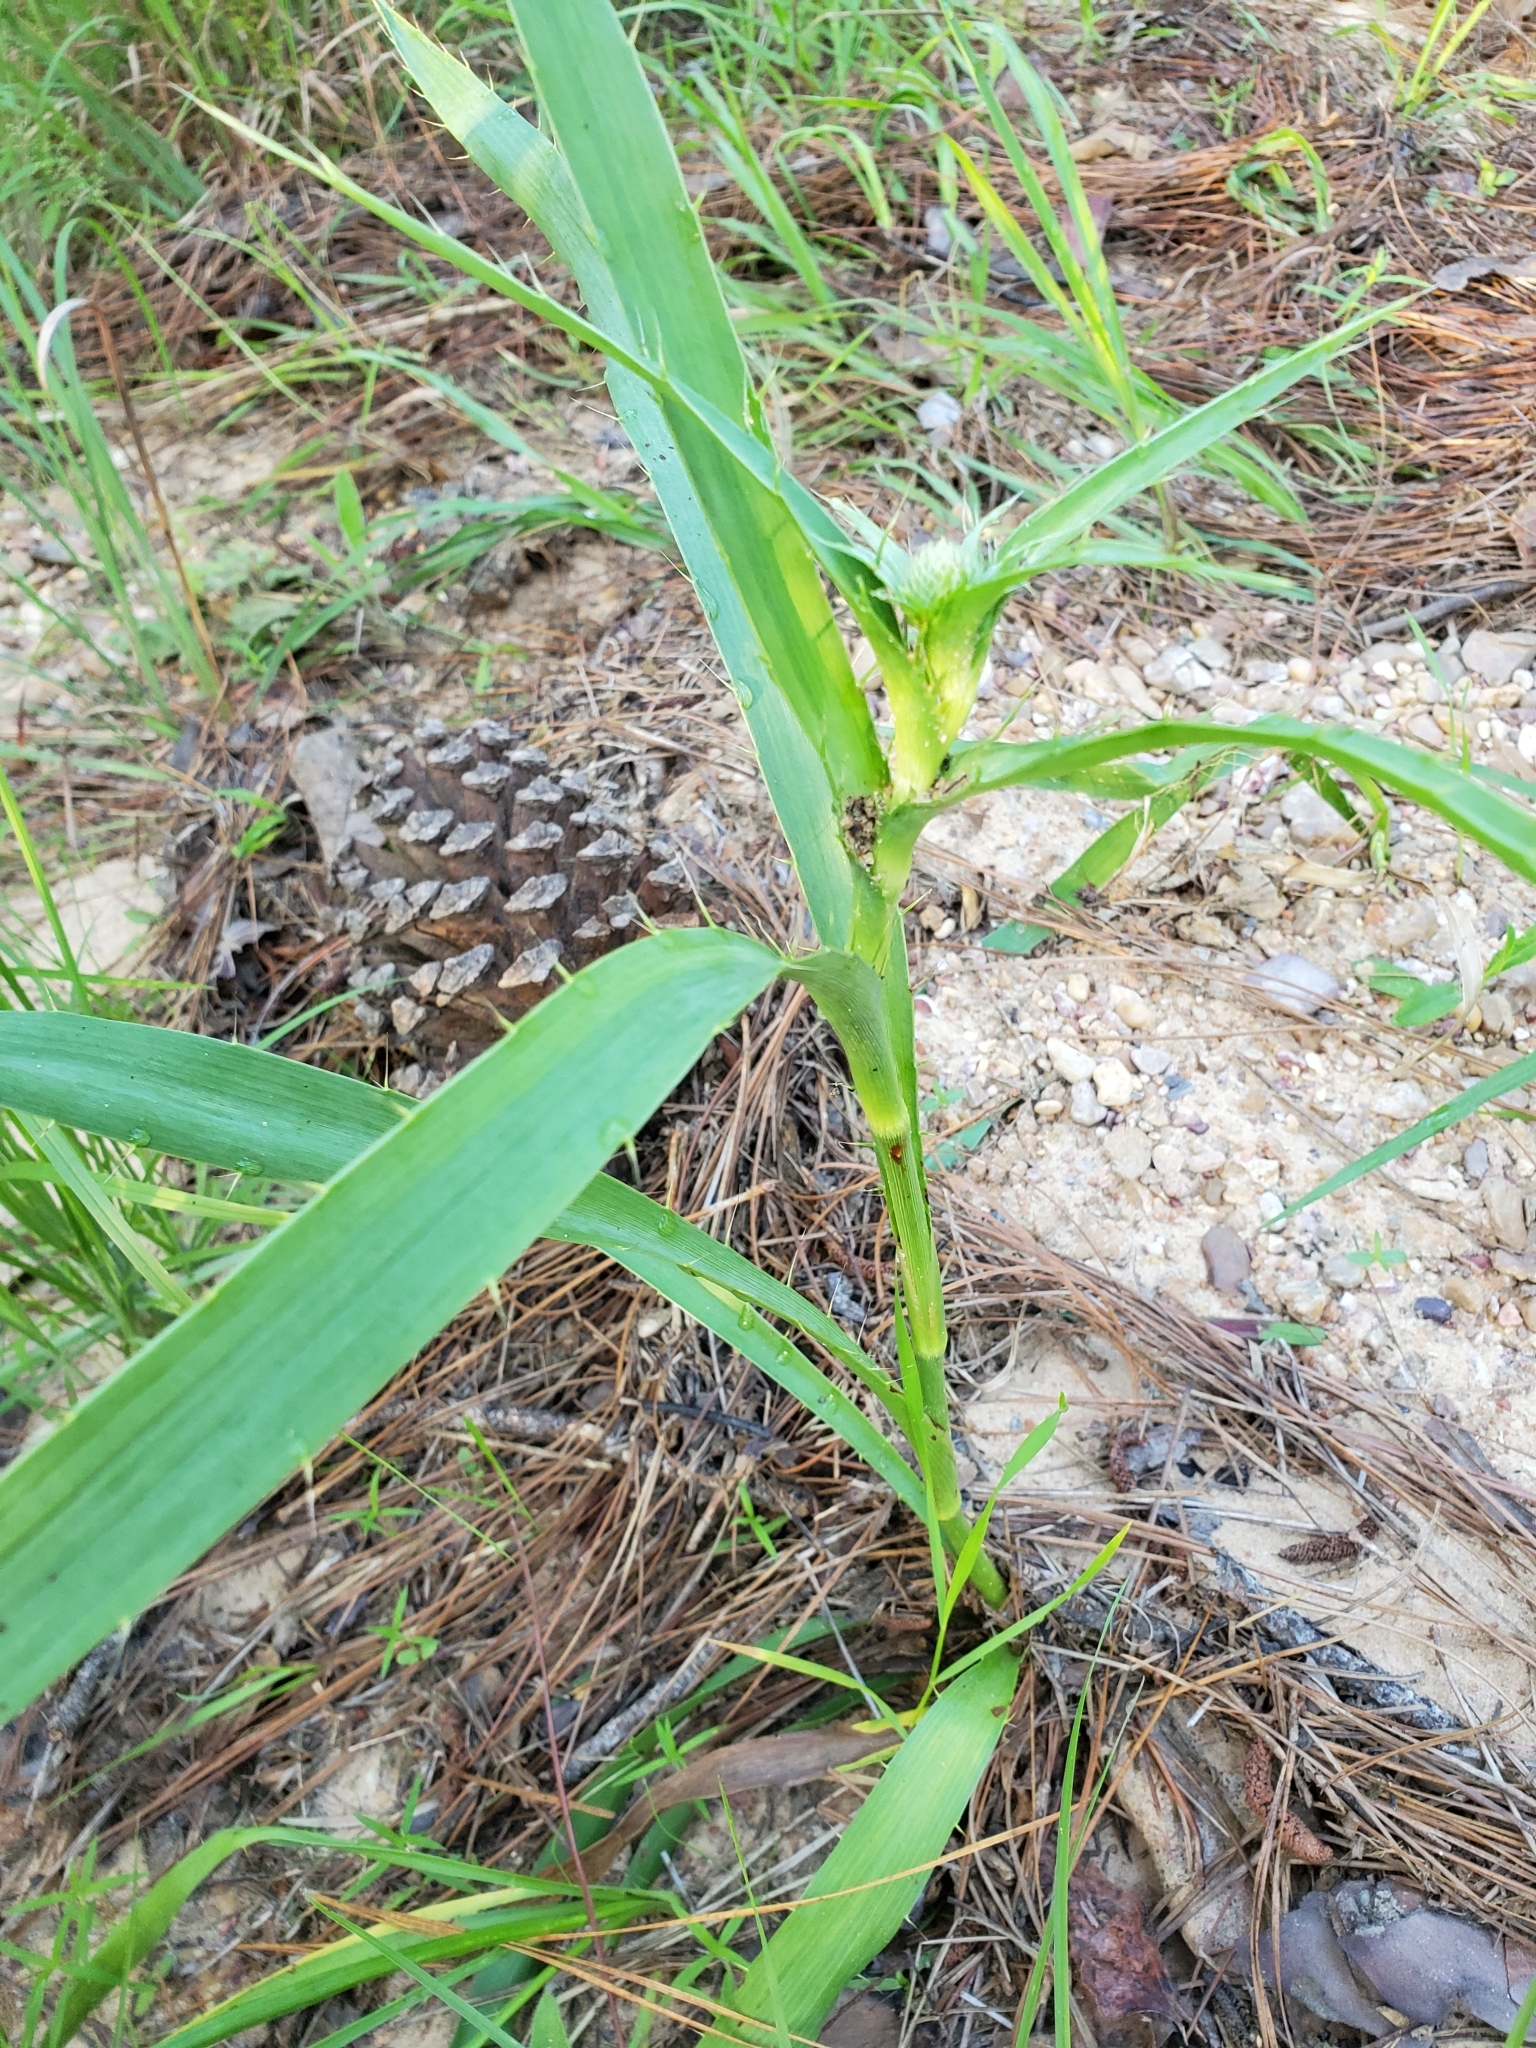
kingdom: Plantae
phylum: Tracheophyta
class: Magnoliopsida
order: Apiales
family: Apiaceae
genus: Eryngium
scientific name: Eryngium yuccifolium
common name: Button eryngo
